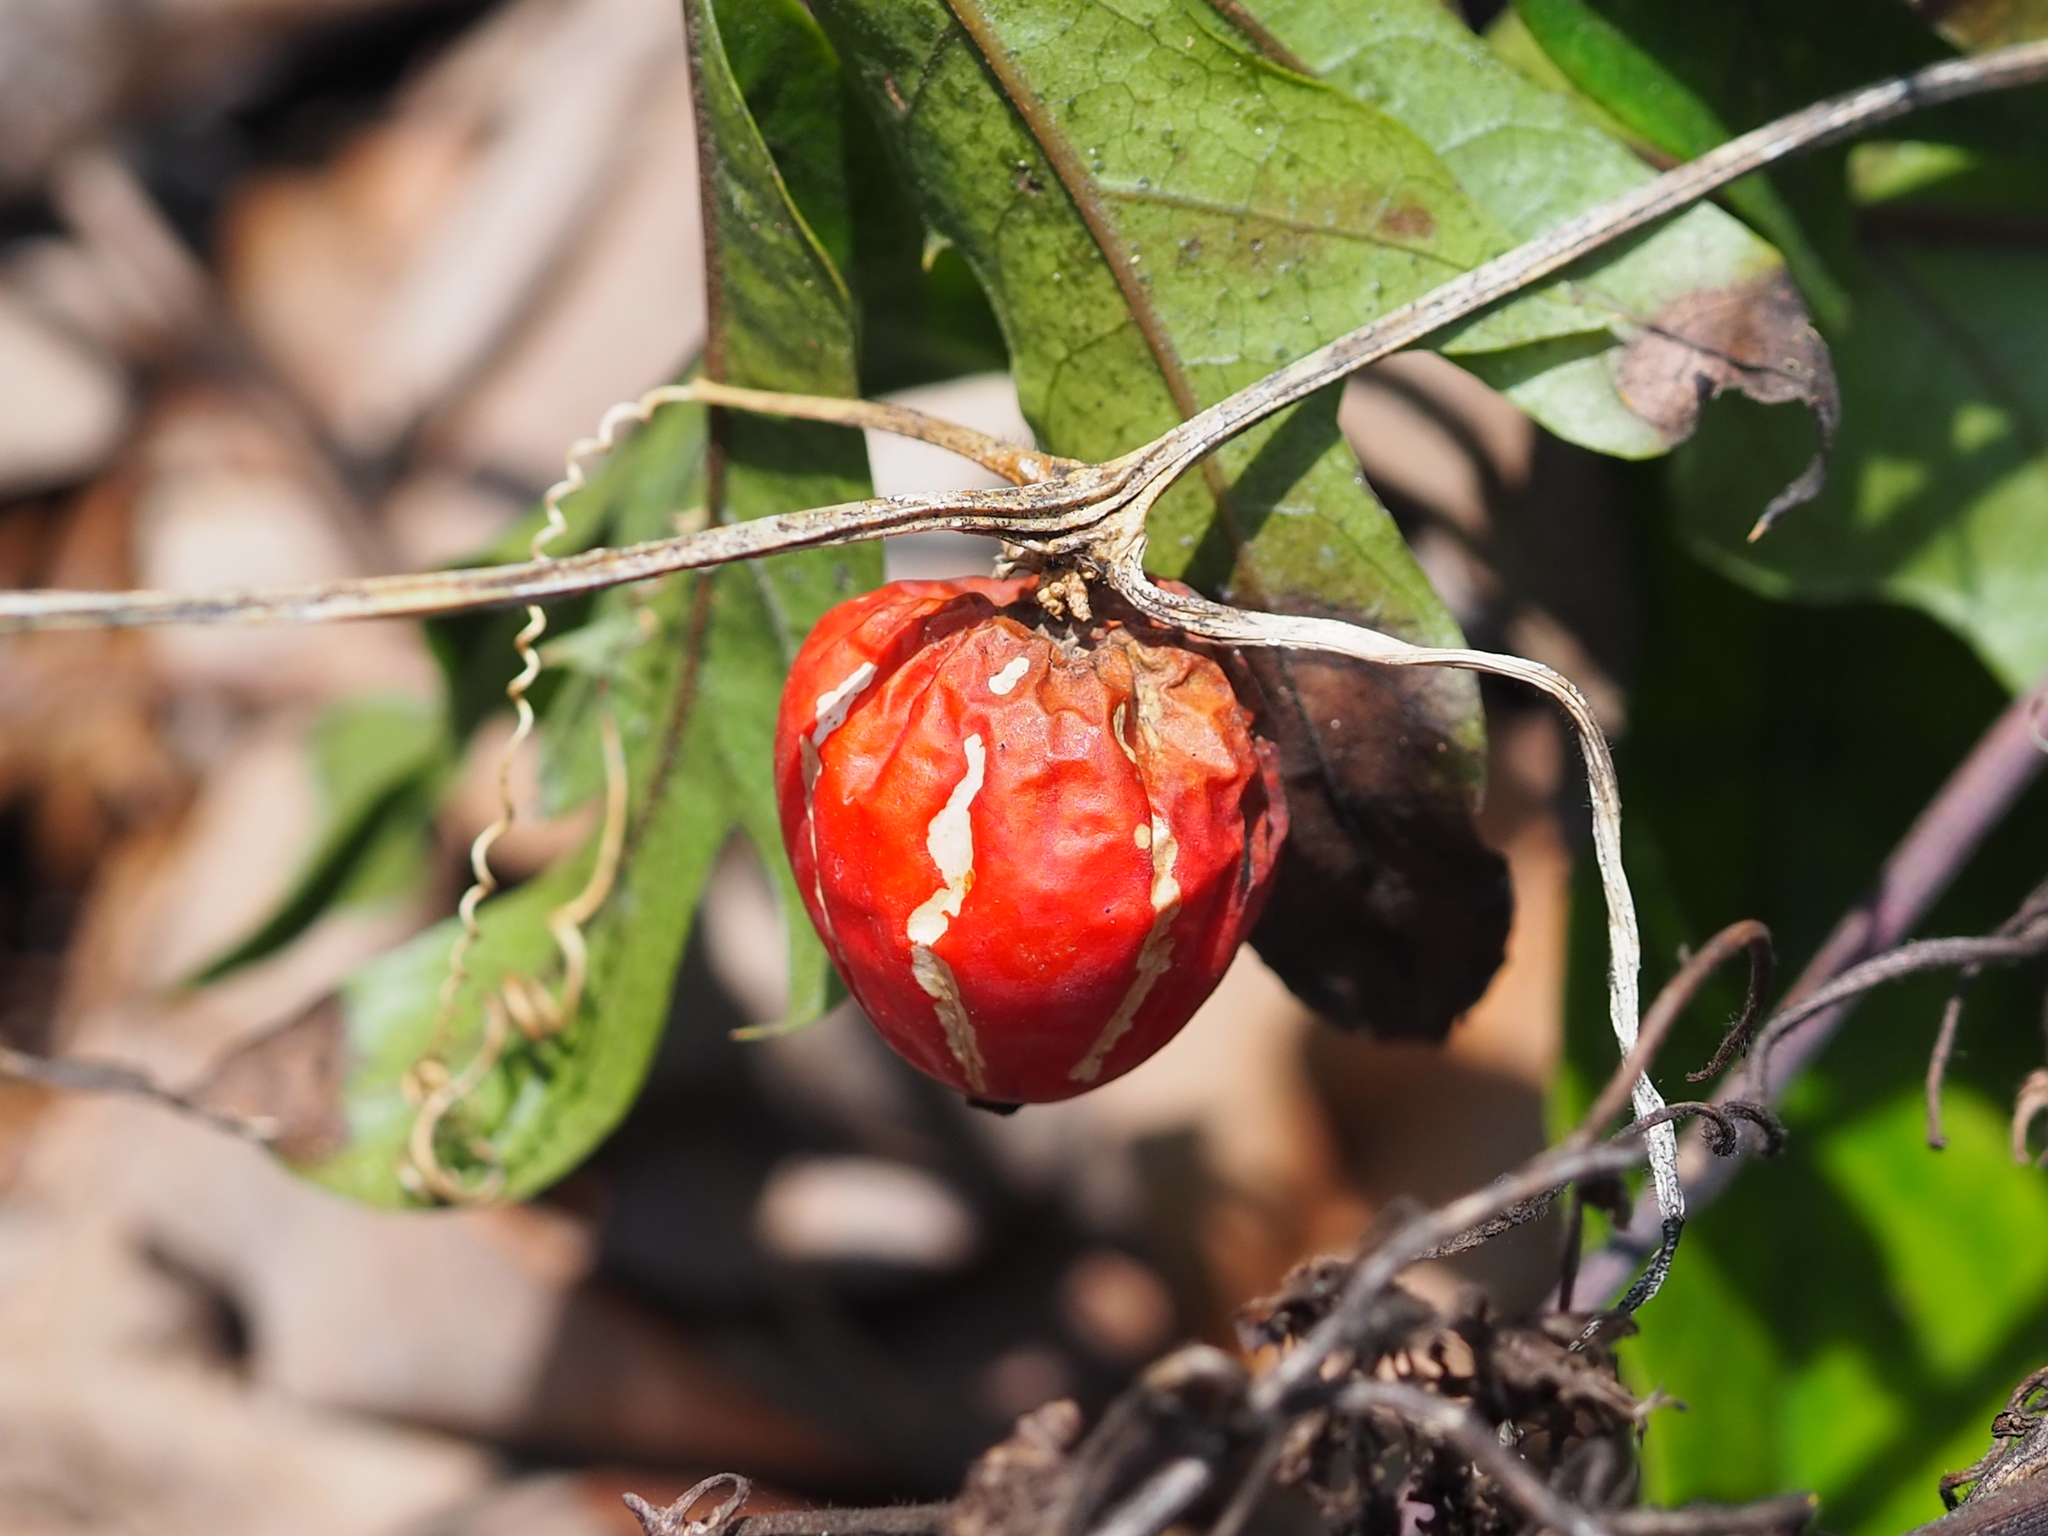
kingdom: Plantae
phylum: Tracheophyta
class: Magnoliopsida
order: Cucurbitales
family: Cucurbitaceae
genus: Diplocyclos
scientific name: Diplocyclos palmatus
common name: Striped-cucumber
